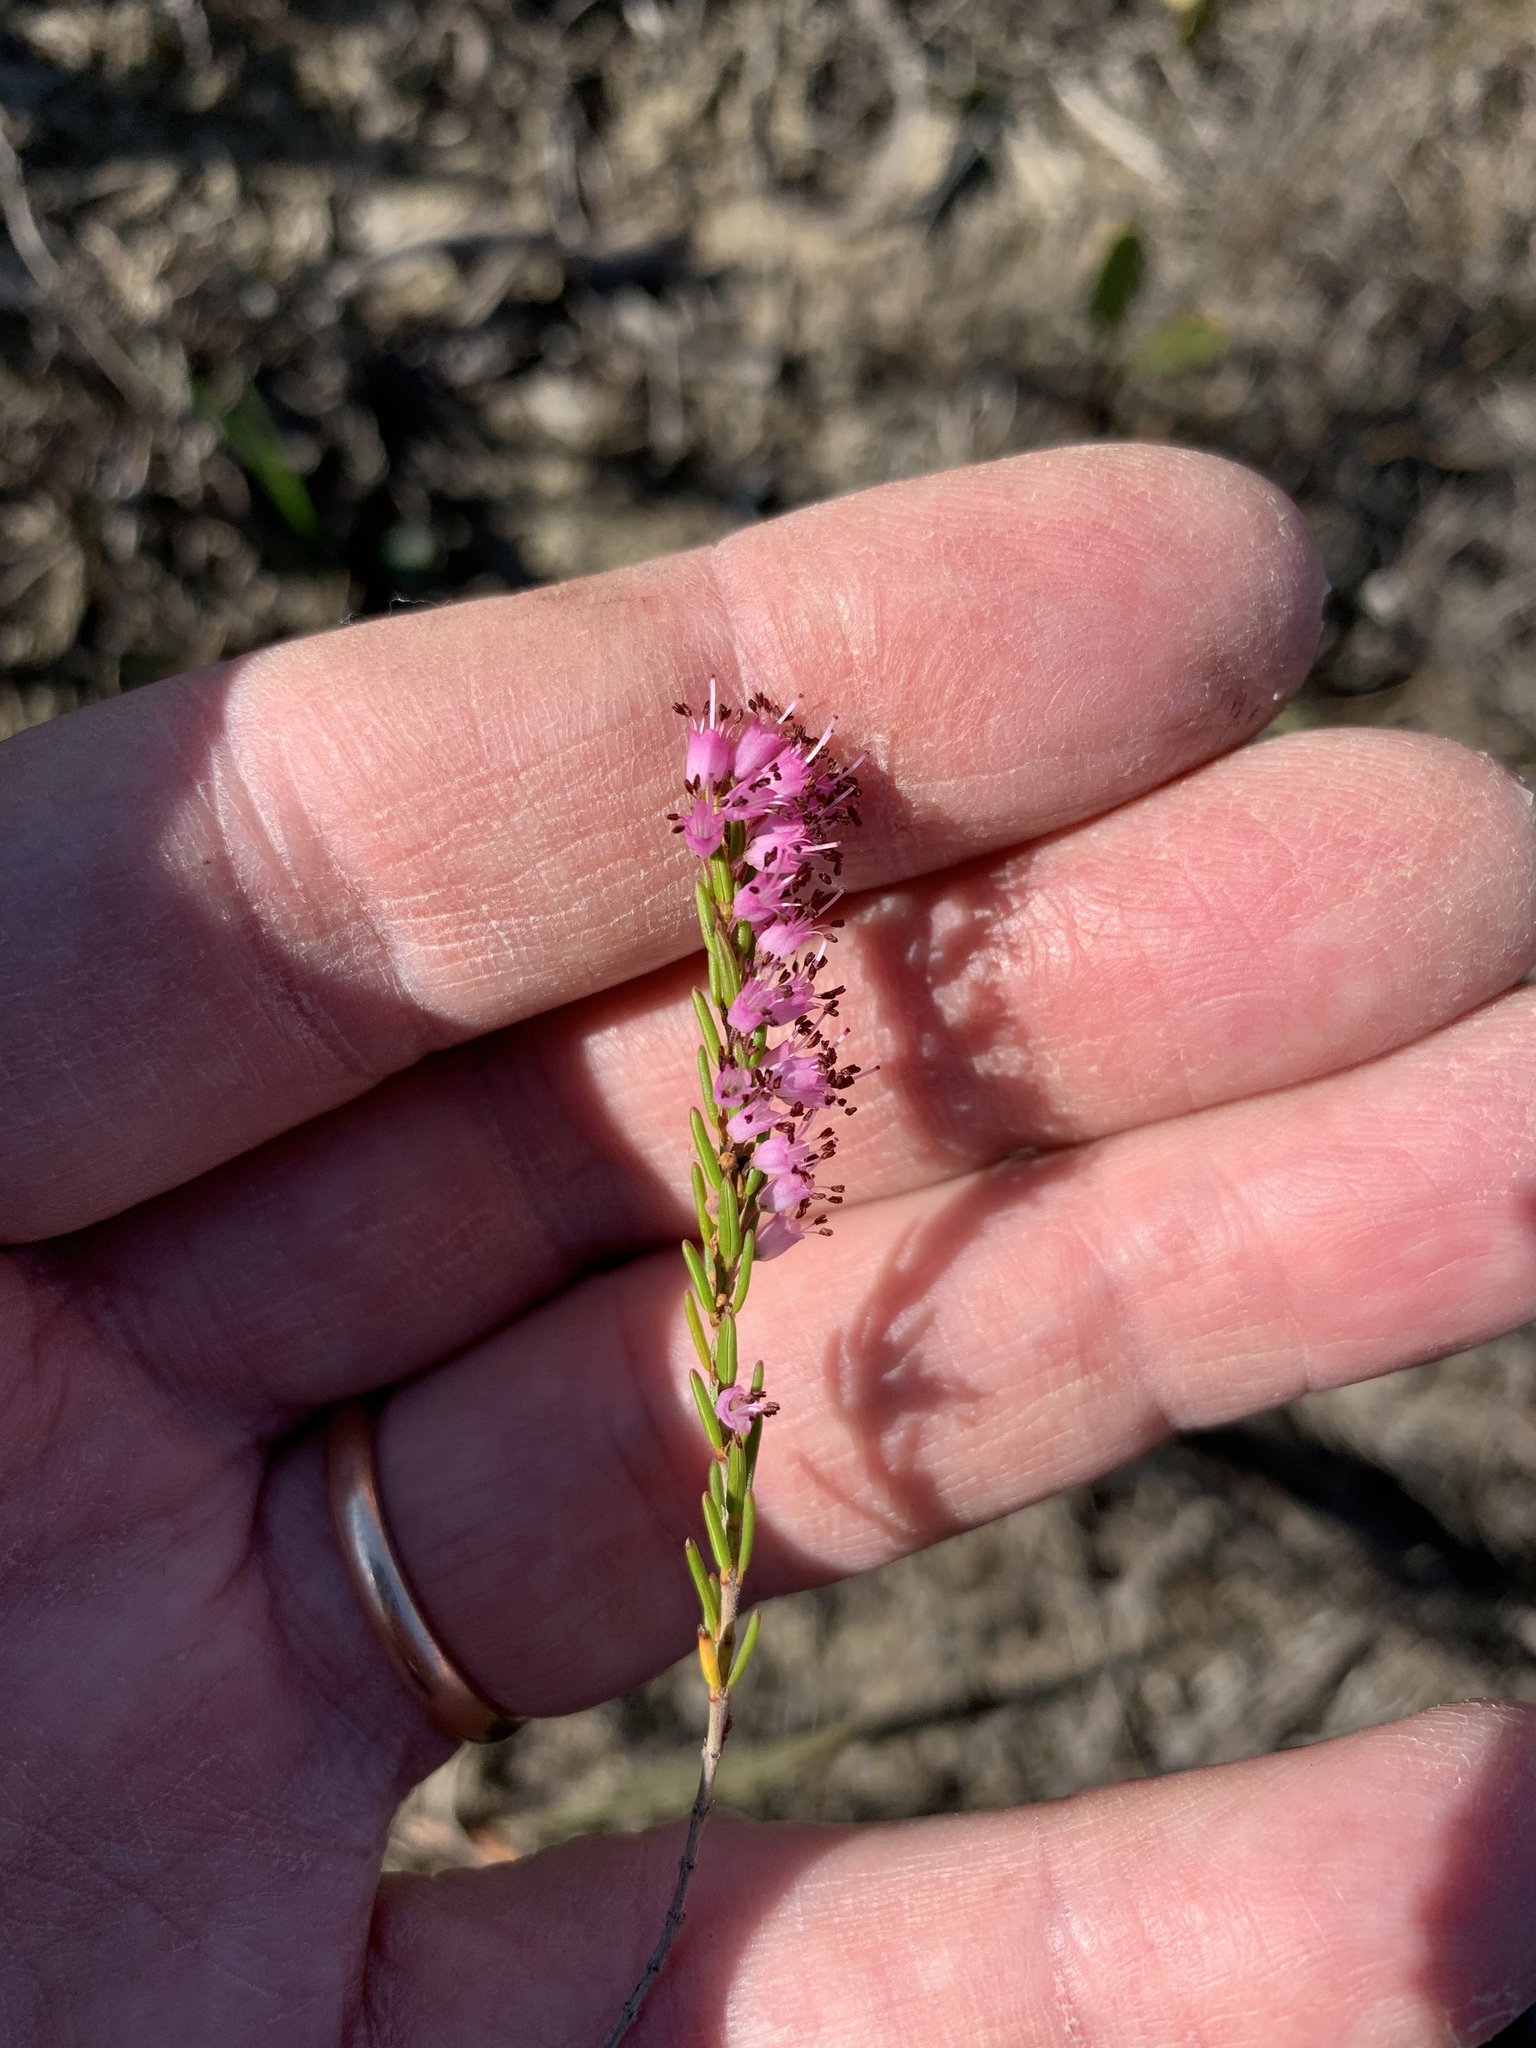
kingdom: Plantae
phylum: Tracheophyta
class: Magnoliopsida
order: Ericales
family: Ericaceae
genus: Erica
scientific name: Erica nudiflora
